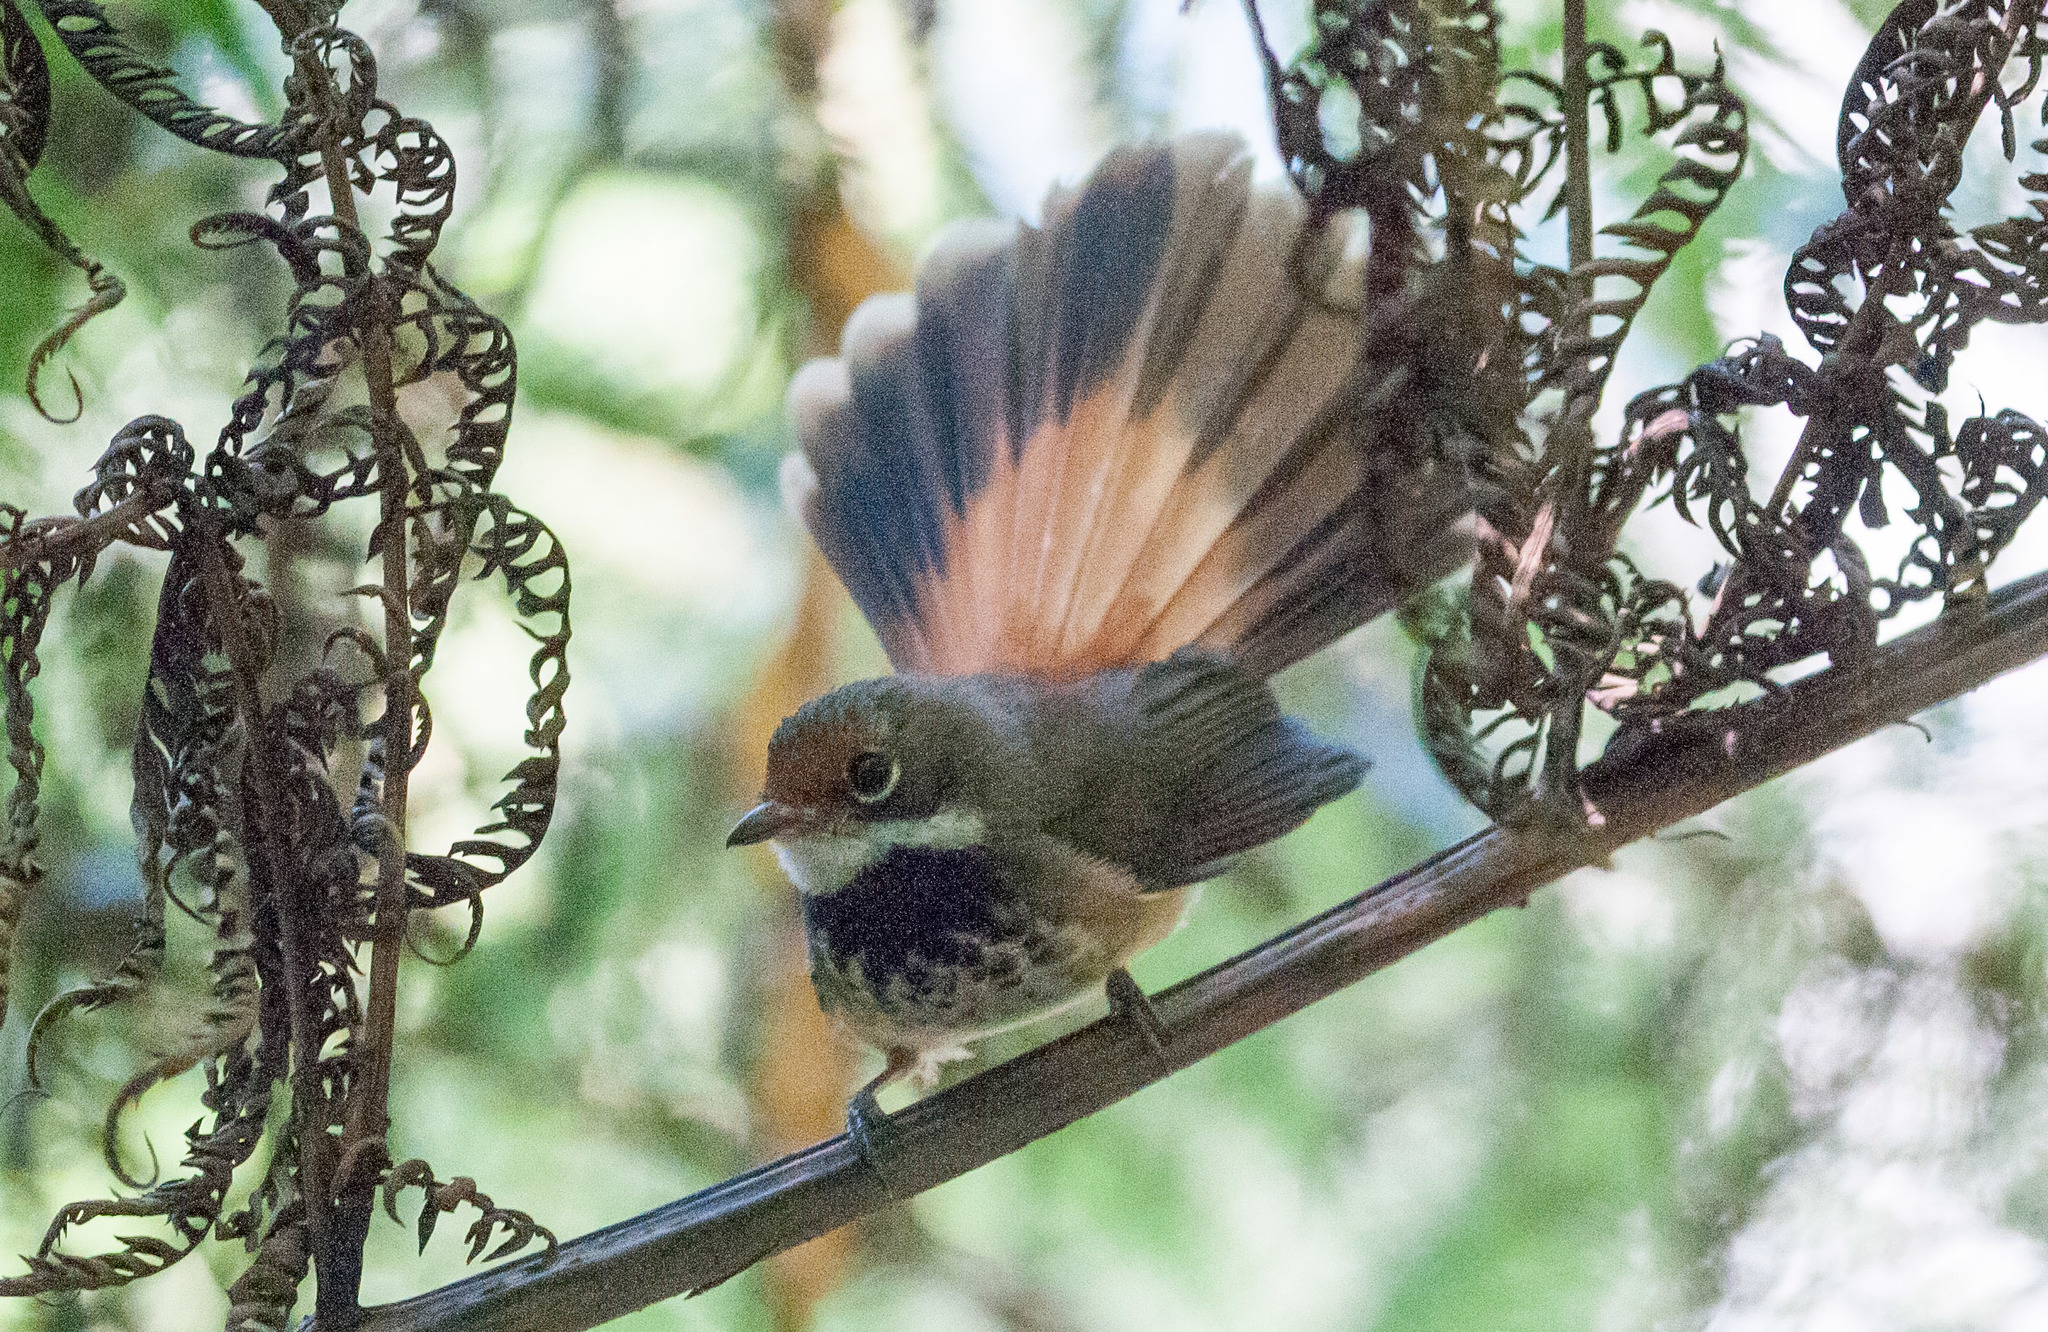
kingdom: Animalia
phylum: Chordata
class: Aves
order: Passeriformes
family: Rhipiduridae
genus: Rhipidura
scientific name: Rhipidura rufifrons
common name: Rufous fantail
